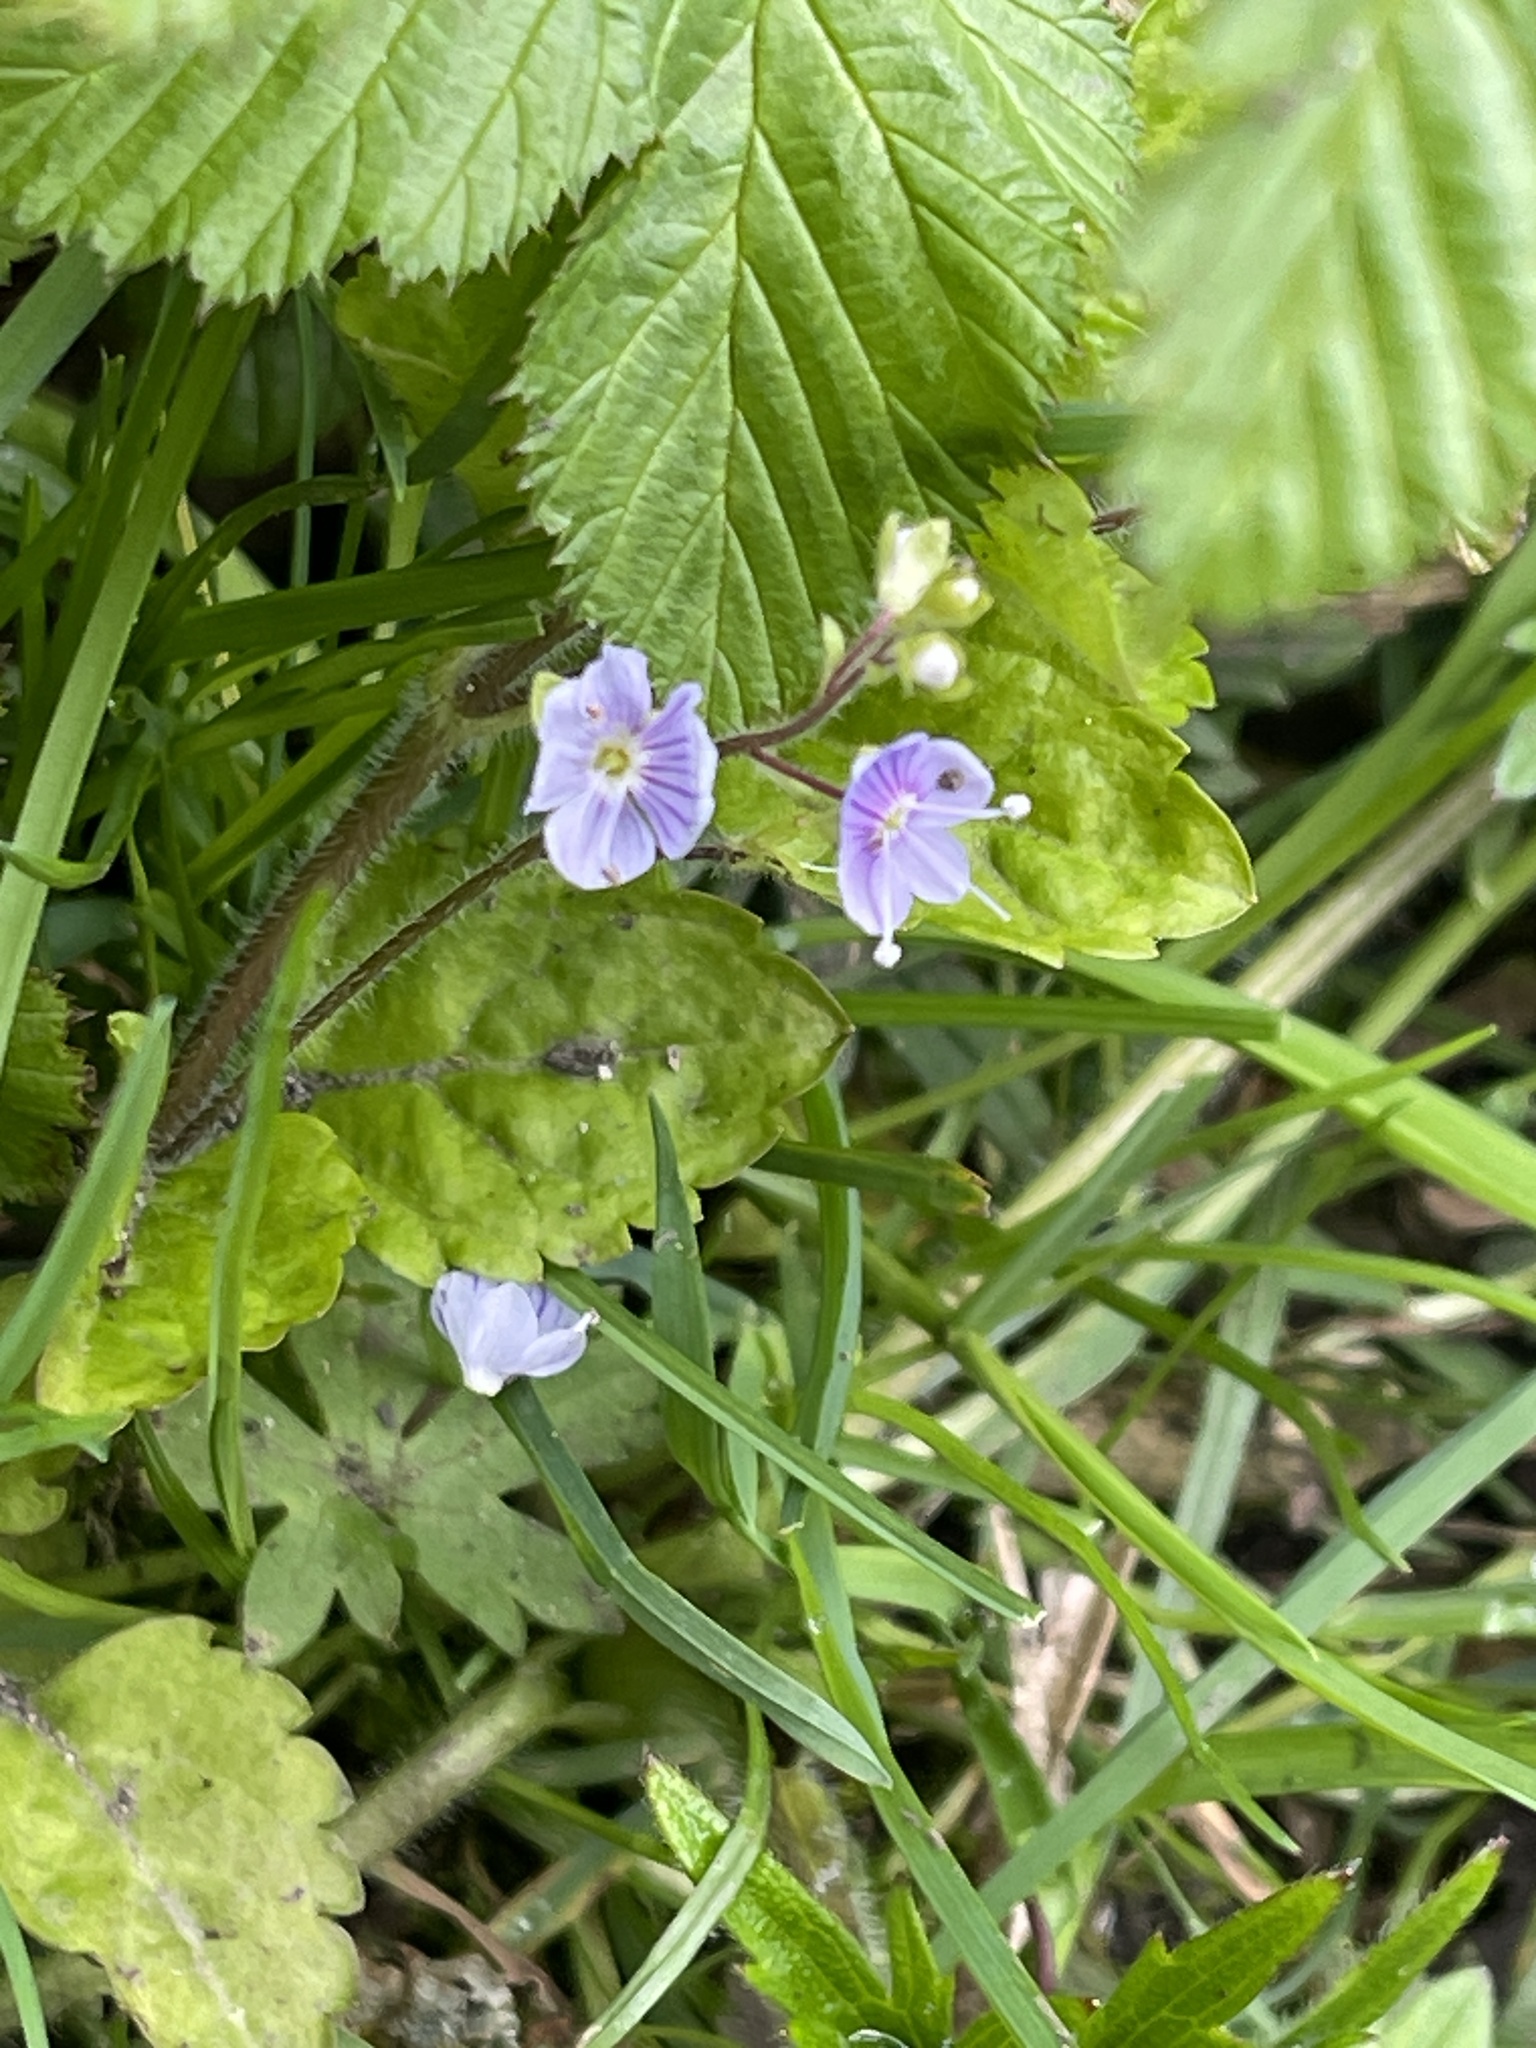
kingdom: Plantae
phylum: Tracheophyta
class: Magnoliopsida
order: Lamiales
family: Plantaginaceae
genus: Veronica
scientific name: Veronica montana
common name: Wood speedwell
